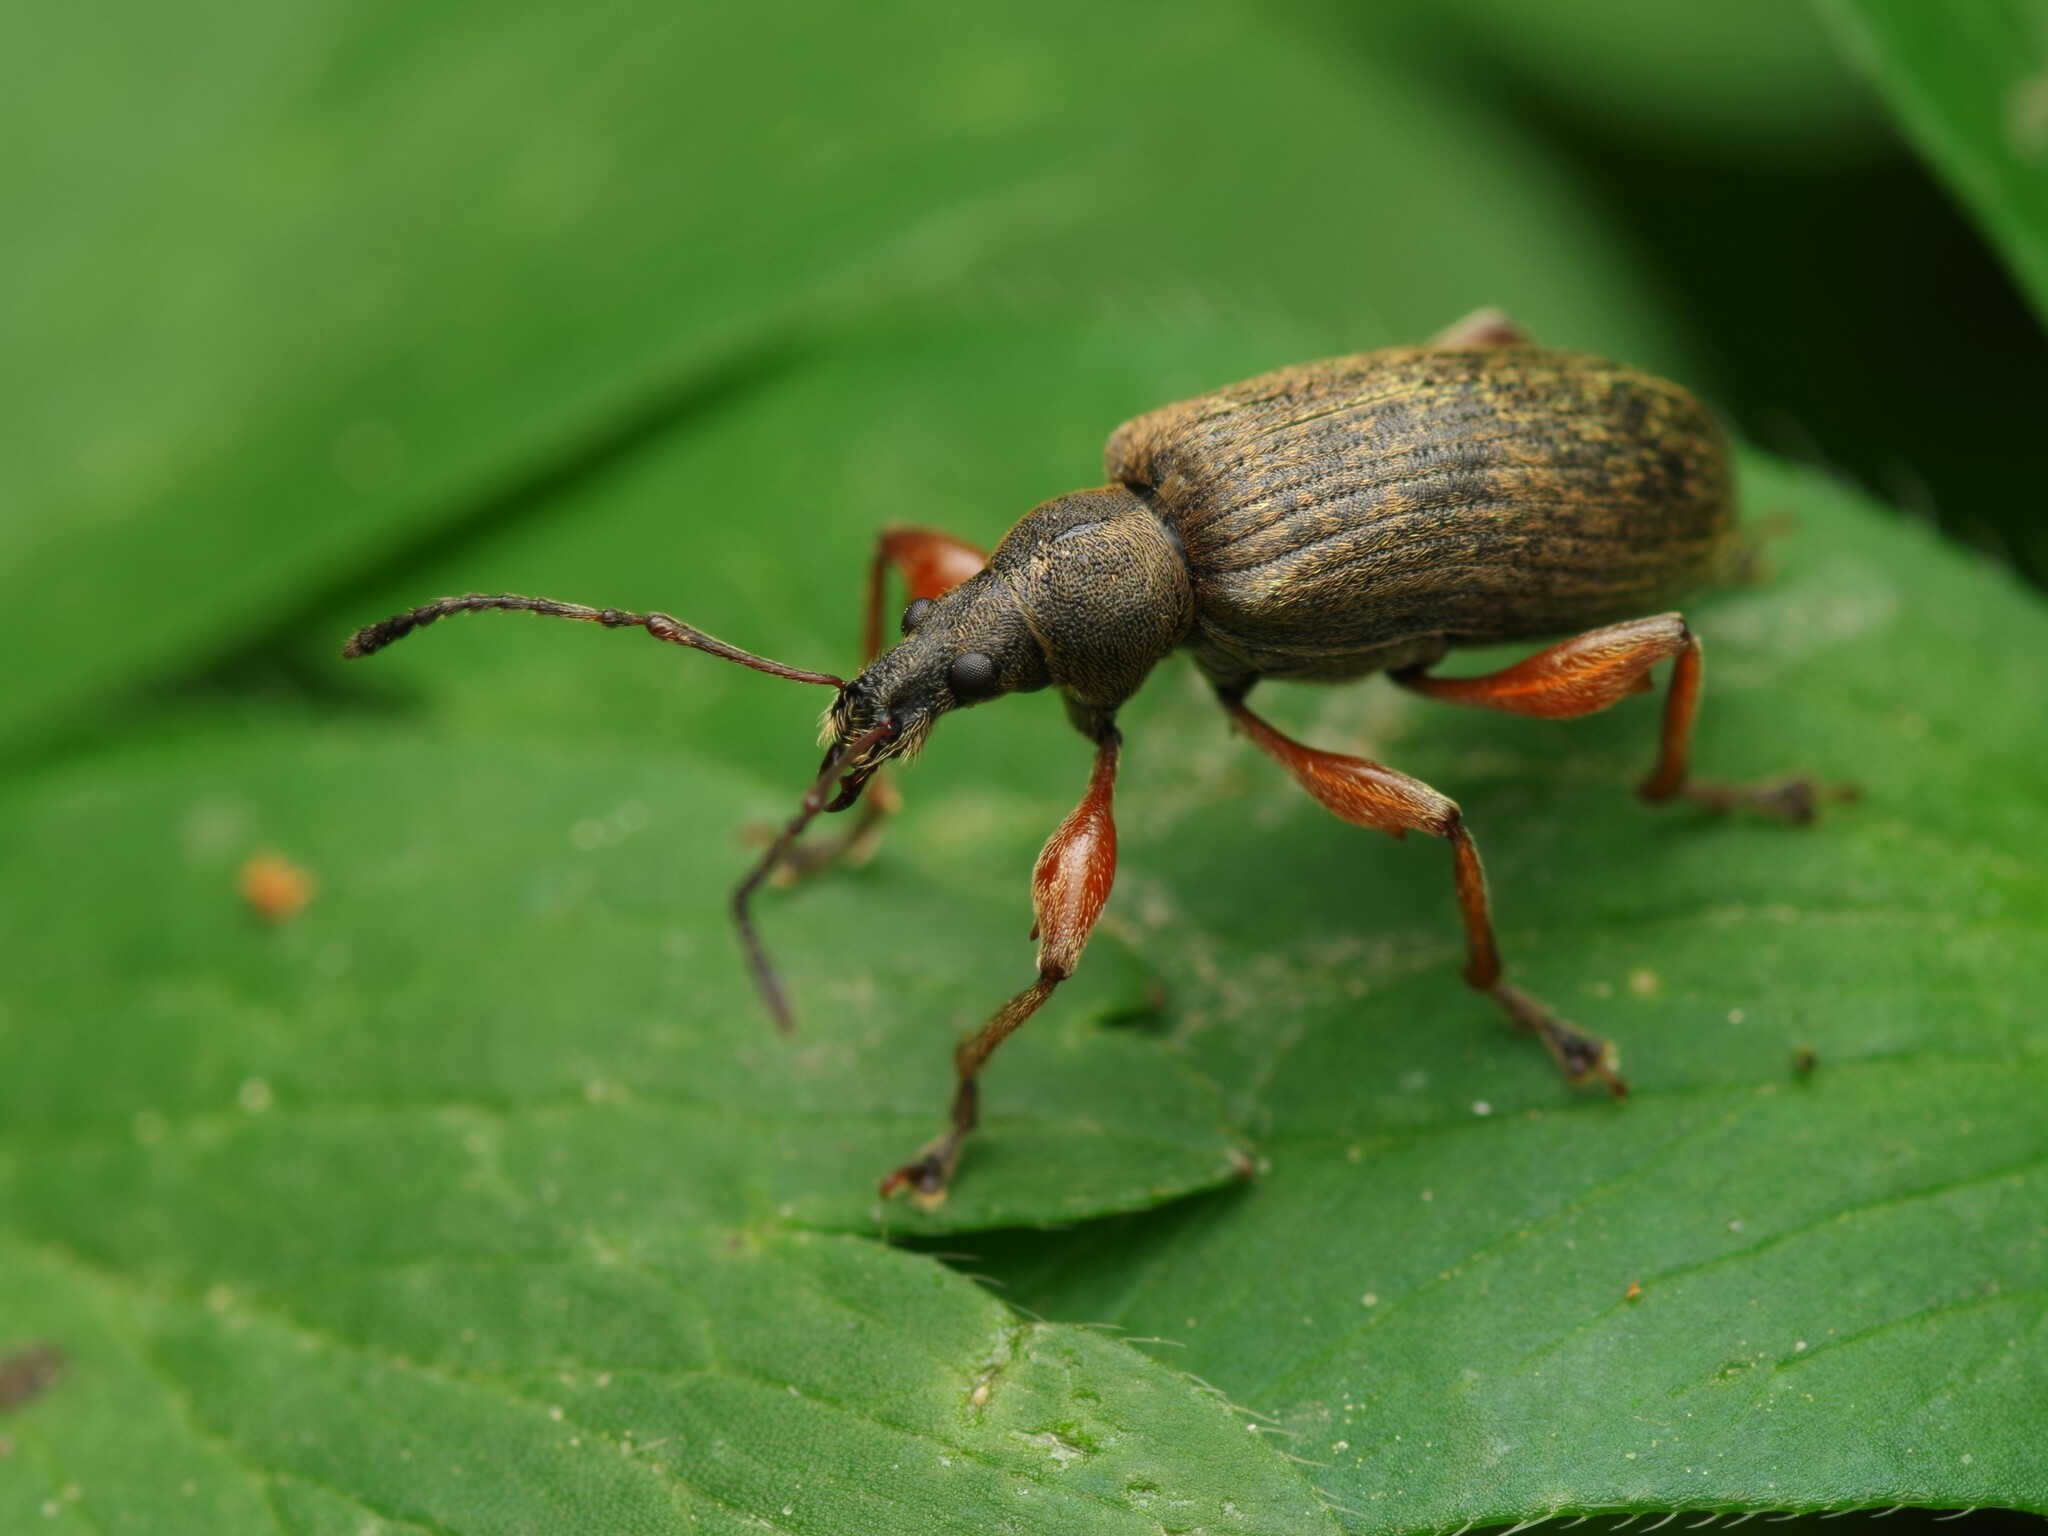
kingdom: Animalia
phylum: Arthropoda
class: Insecta
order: Coleoptera
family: Curculionidae
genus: Phyllobius
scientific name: Phyllobius glaucus
